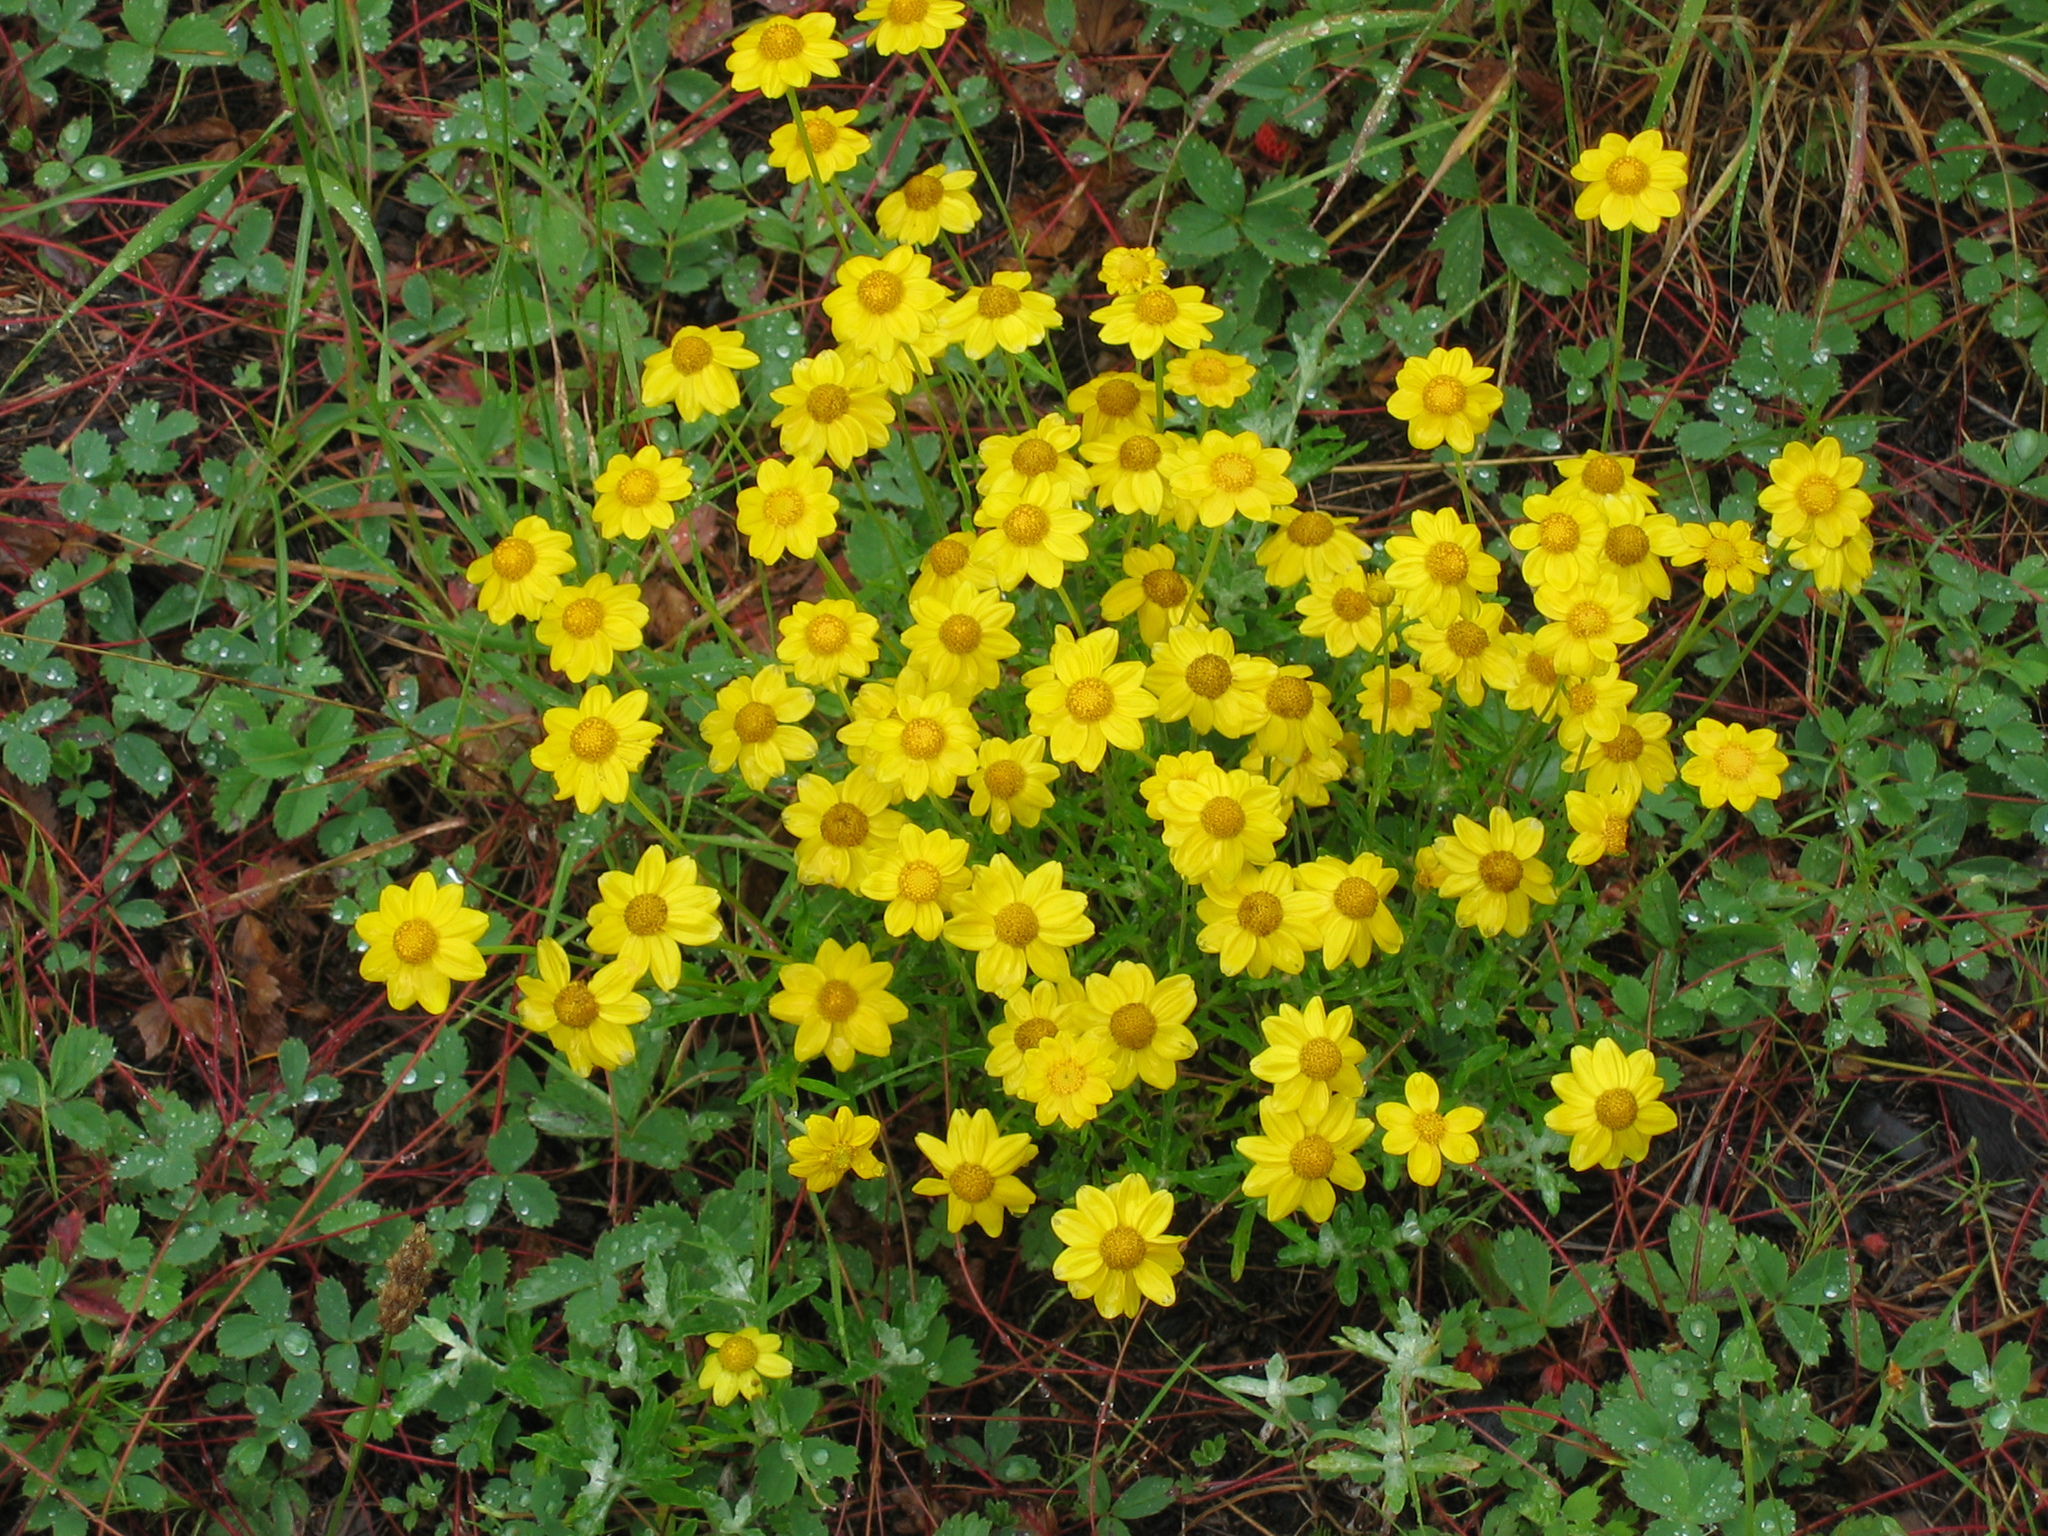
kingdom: Plantae
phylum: Tracheophyta
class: Magnoliopsida
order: Asterales
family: Asteraceae
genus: Eriophyllum
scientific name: Eriophyllum lanatum
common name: Common woolly-sunflower
